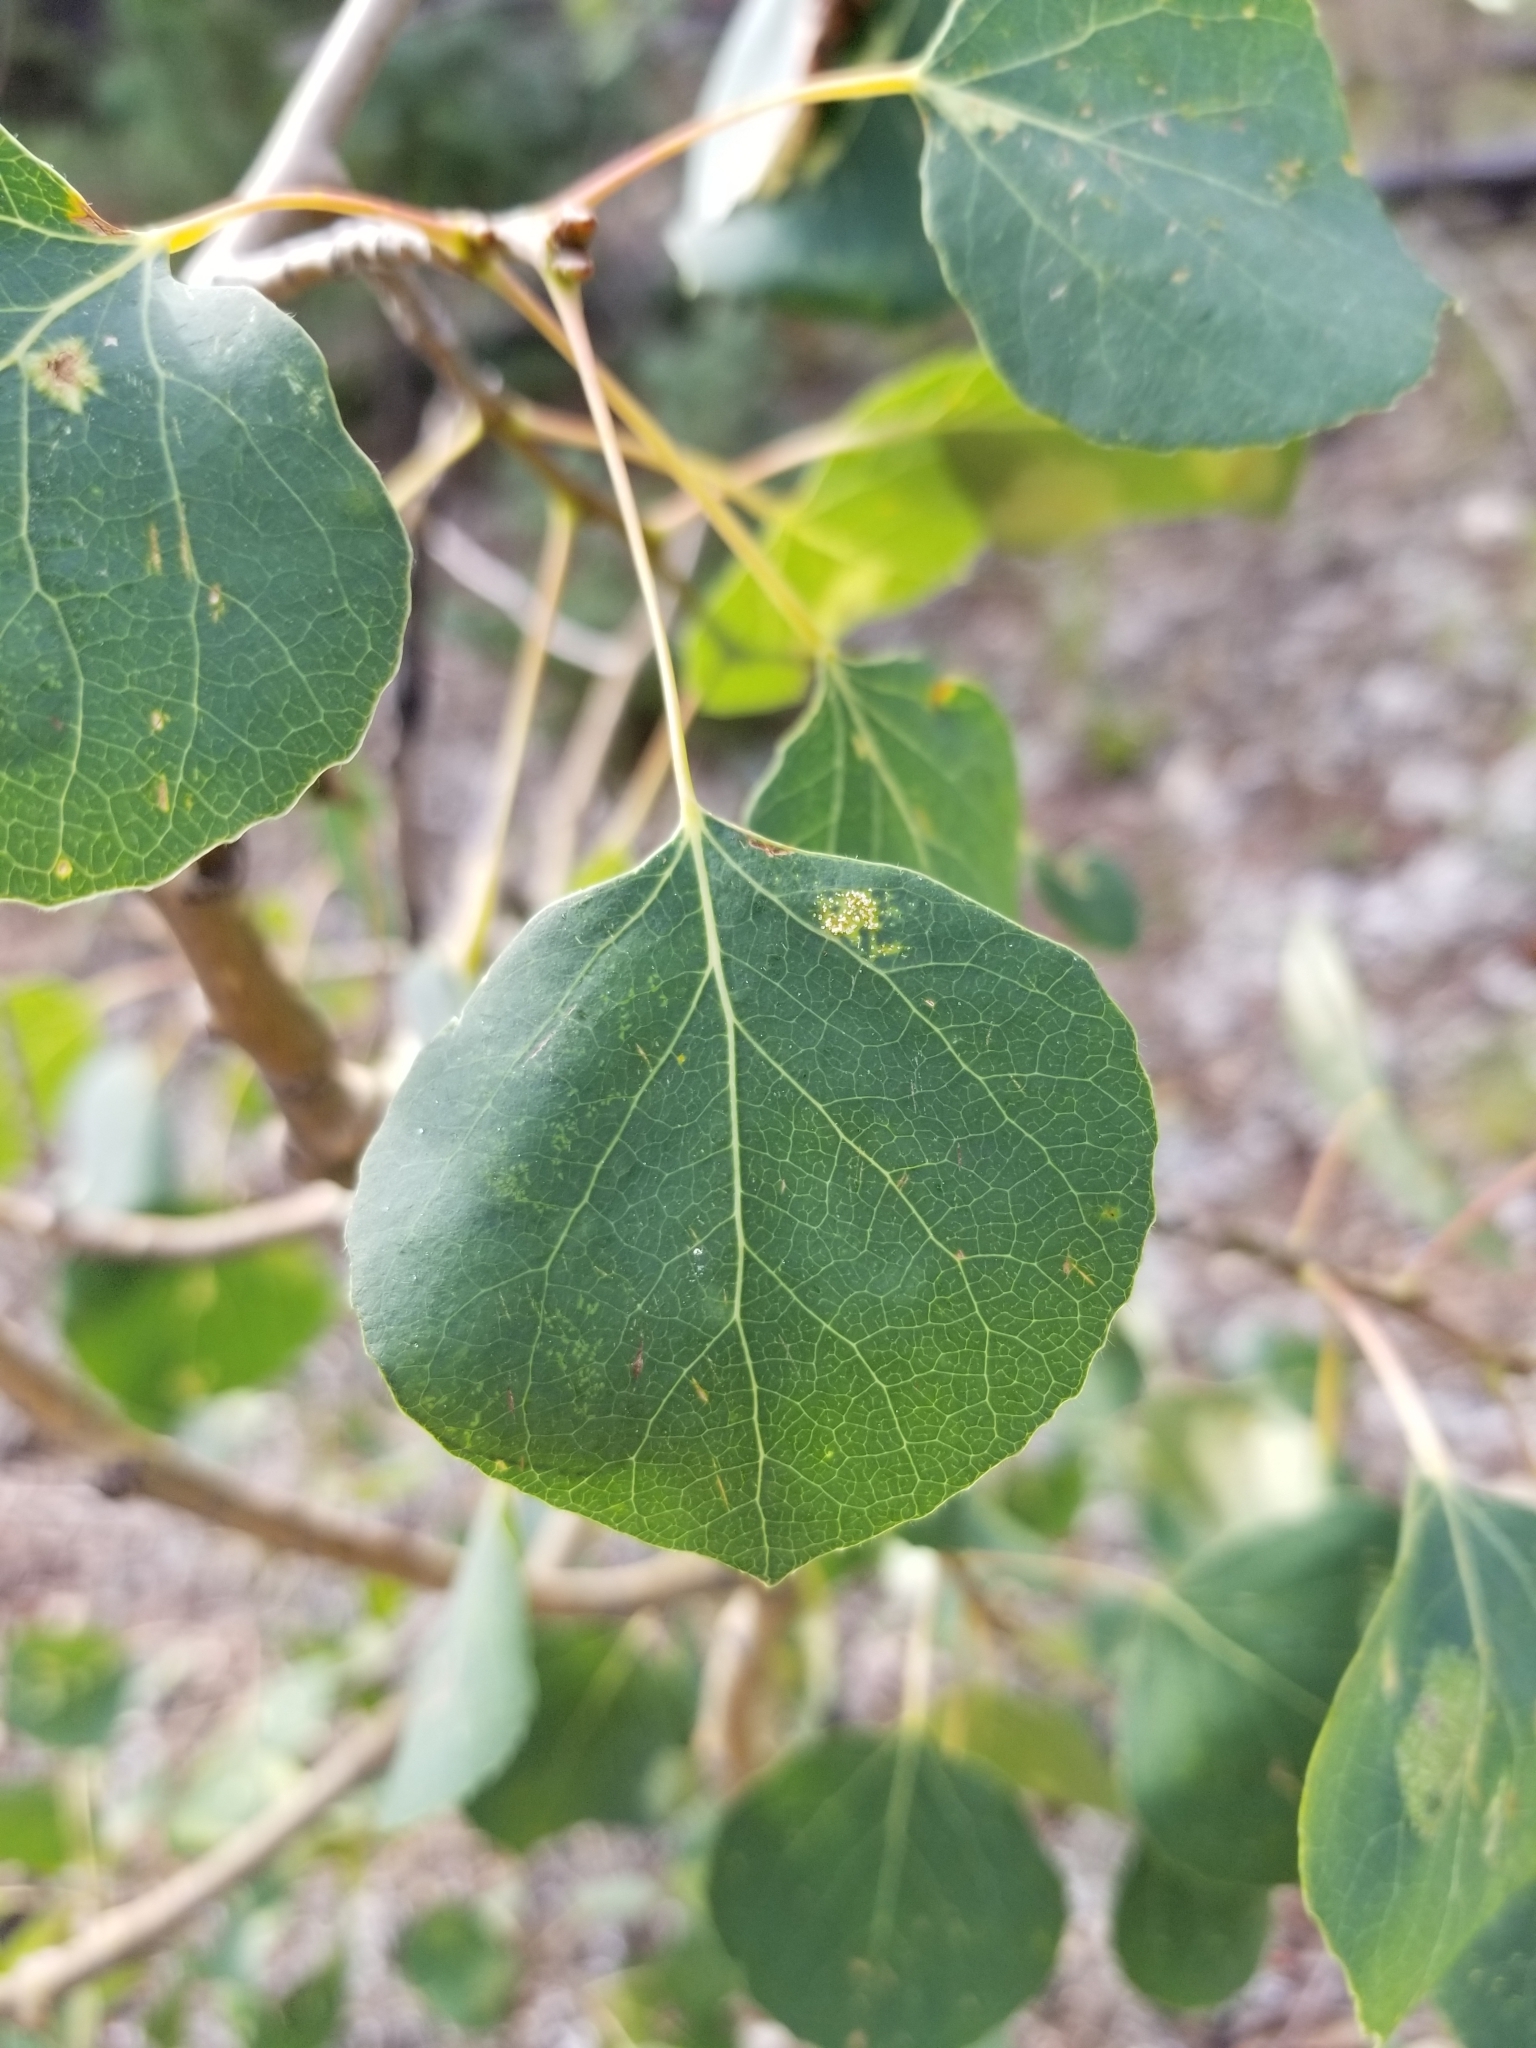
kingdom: Plantae
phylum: Tracheophyta
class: Magnoliopsida
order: Malpighiales
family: Salicaceae
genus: Populus
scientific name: Populus tremuloides
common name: Quaking aspen
